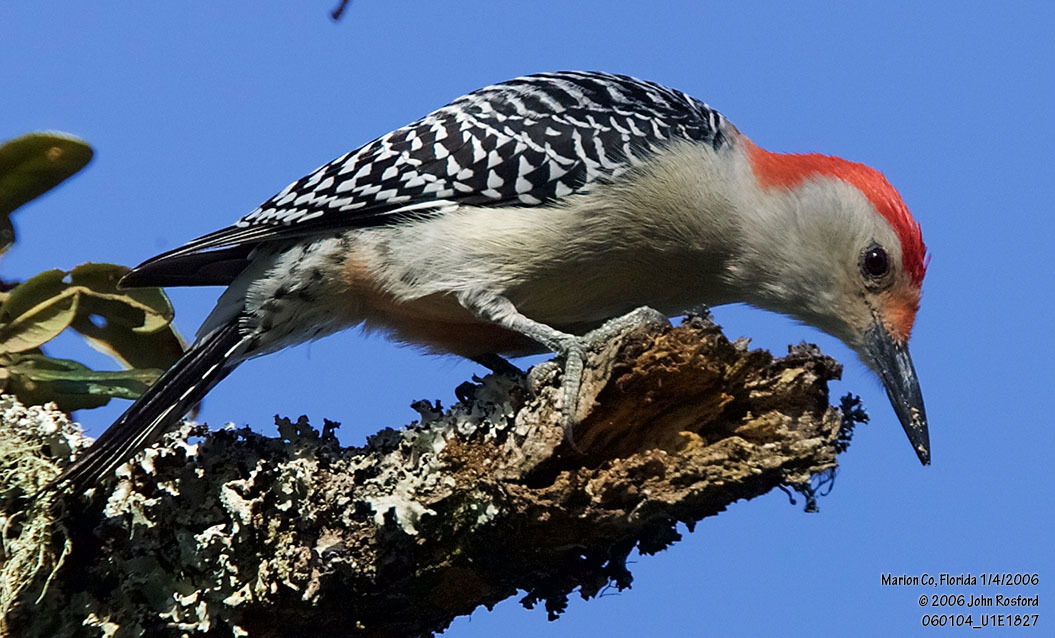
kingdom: Animalia
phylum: Chordata
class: Aves
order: Piciformes
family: Picidae
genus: Melanerpes
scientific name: Melanerpes carolinus
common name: Red-bellied woodpecker
